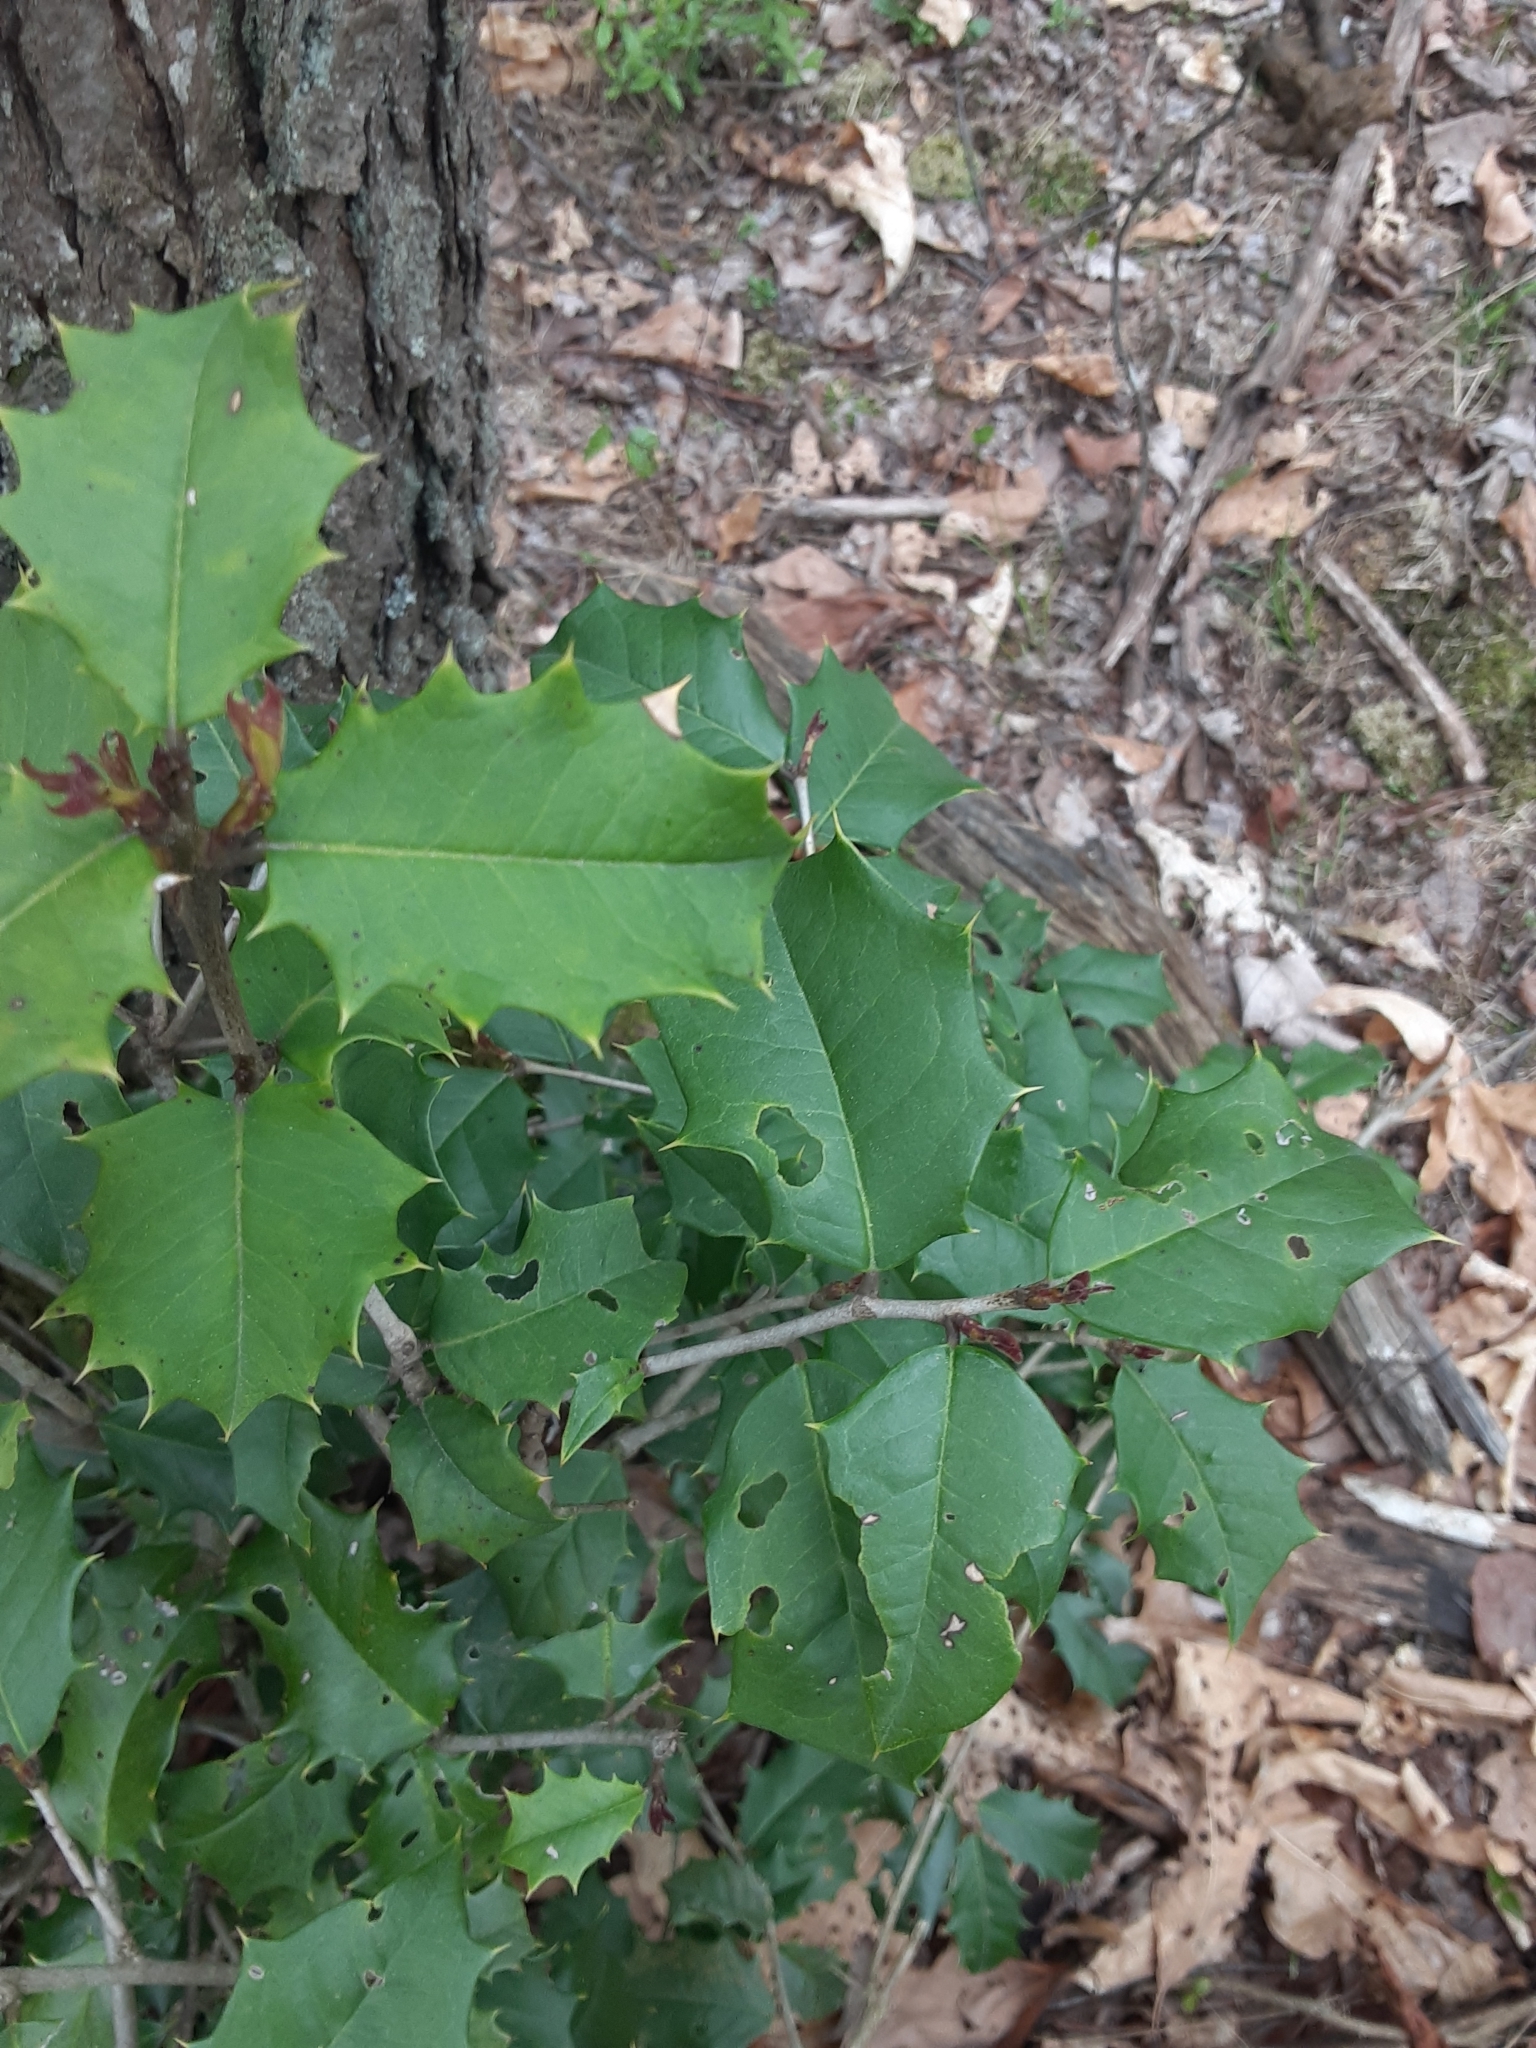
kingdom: Plantae
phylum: Tracheophyta
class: Magnoliopsida
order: Aquifoliales
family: Aquifoliaceae
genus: Ilex
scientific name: Ilex opaca
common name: American holly
